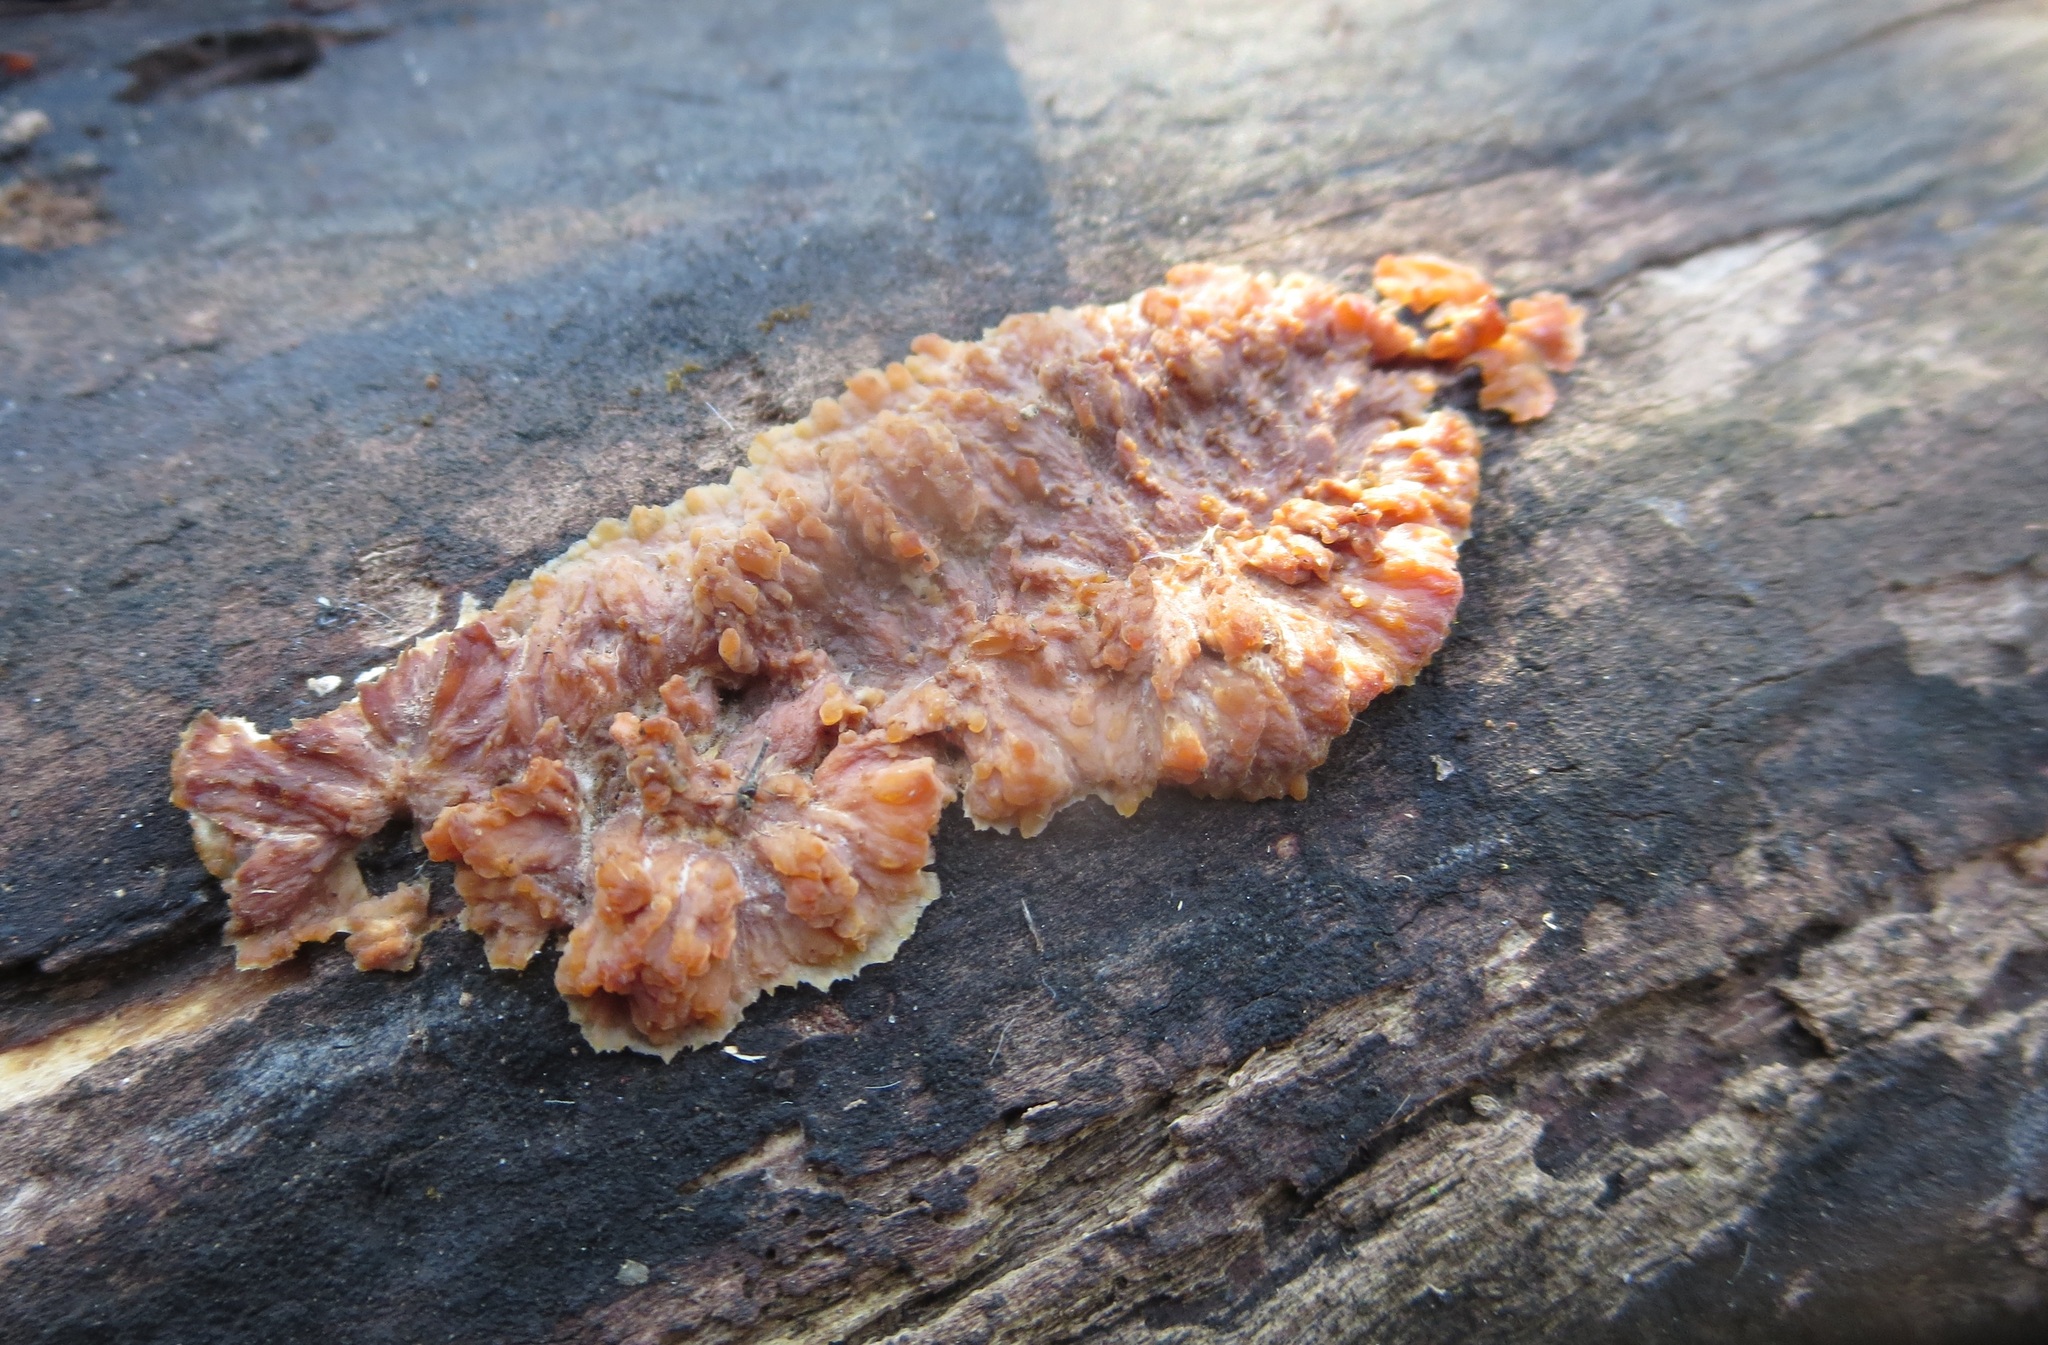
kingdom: Fungi
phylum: Basidiomycota
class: Agaricomycetes
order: Polyporales
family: Meruliaceae
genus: Phlebia
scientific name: Phlebia radiata
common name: Wrinkled crust
